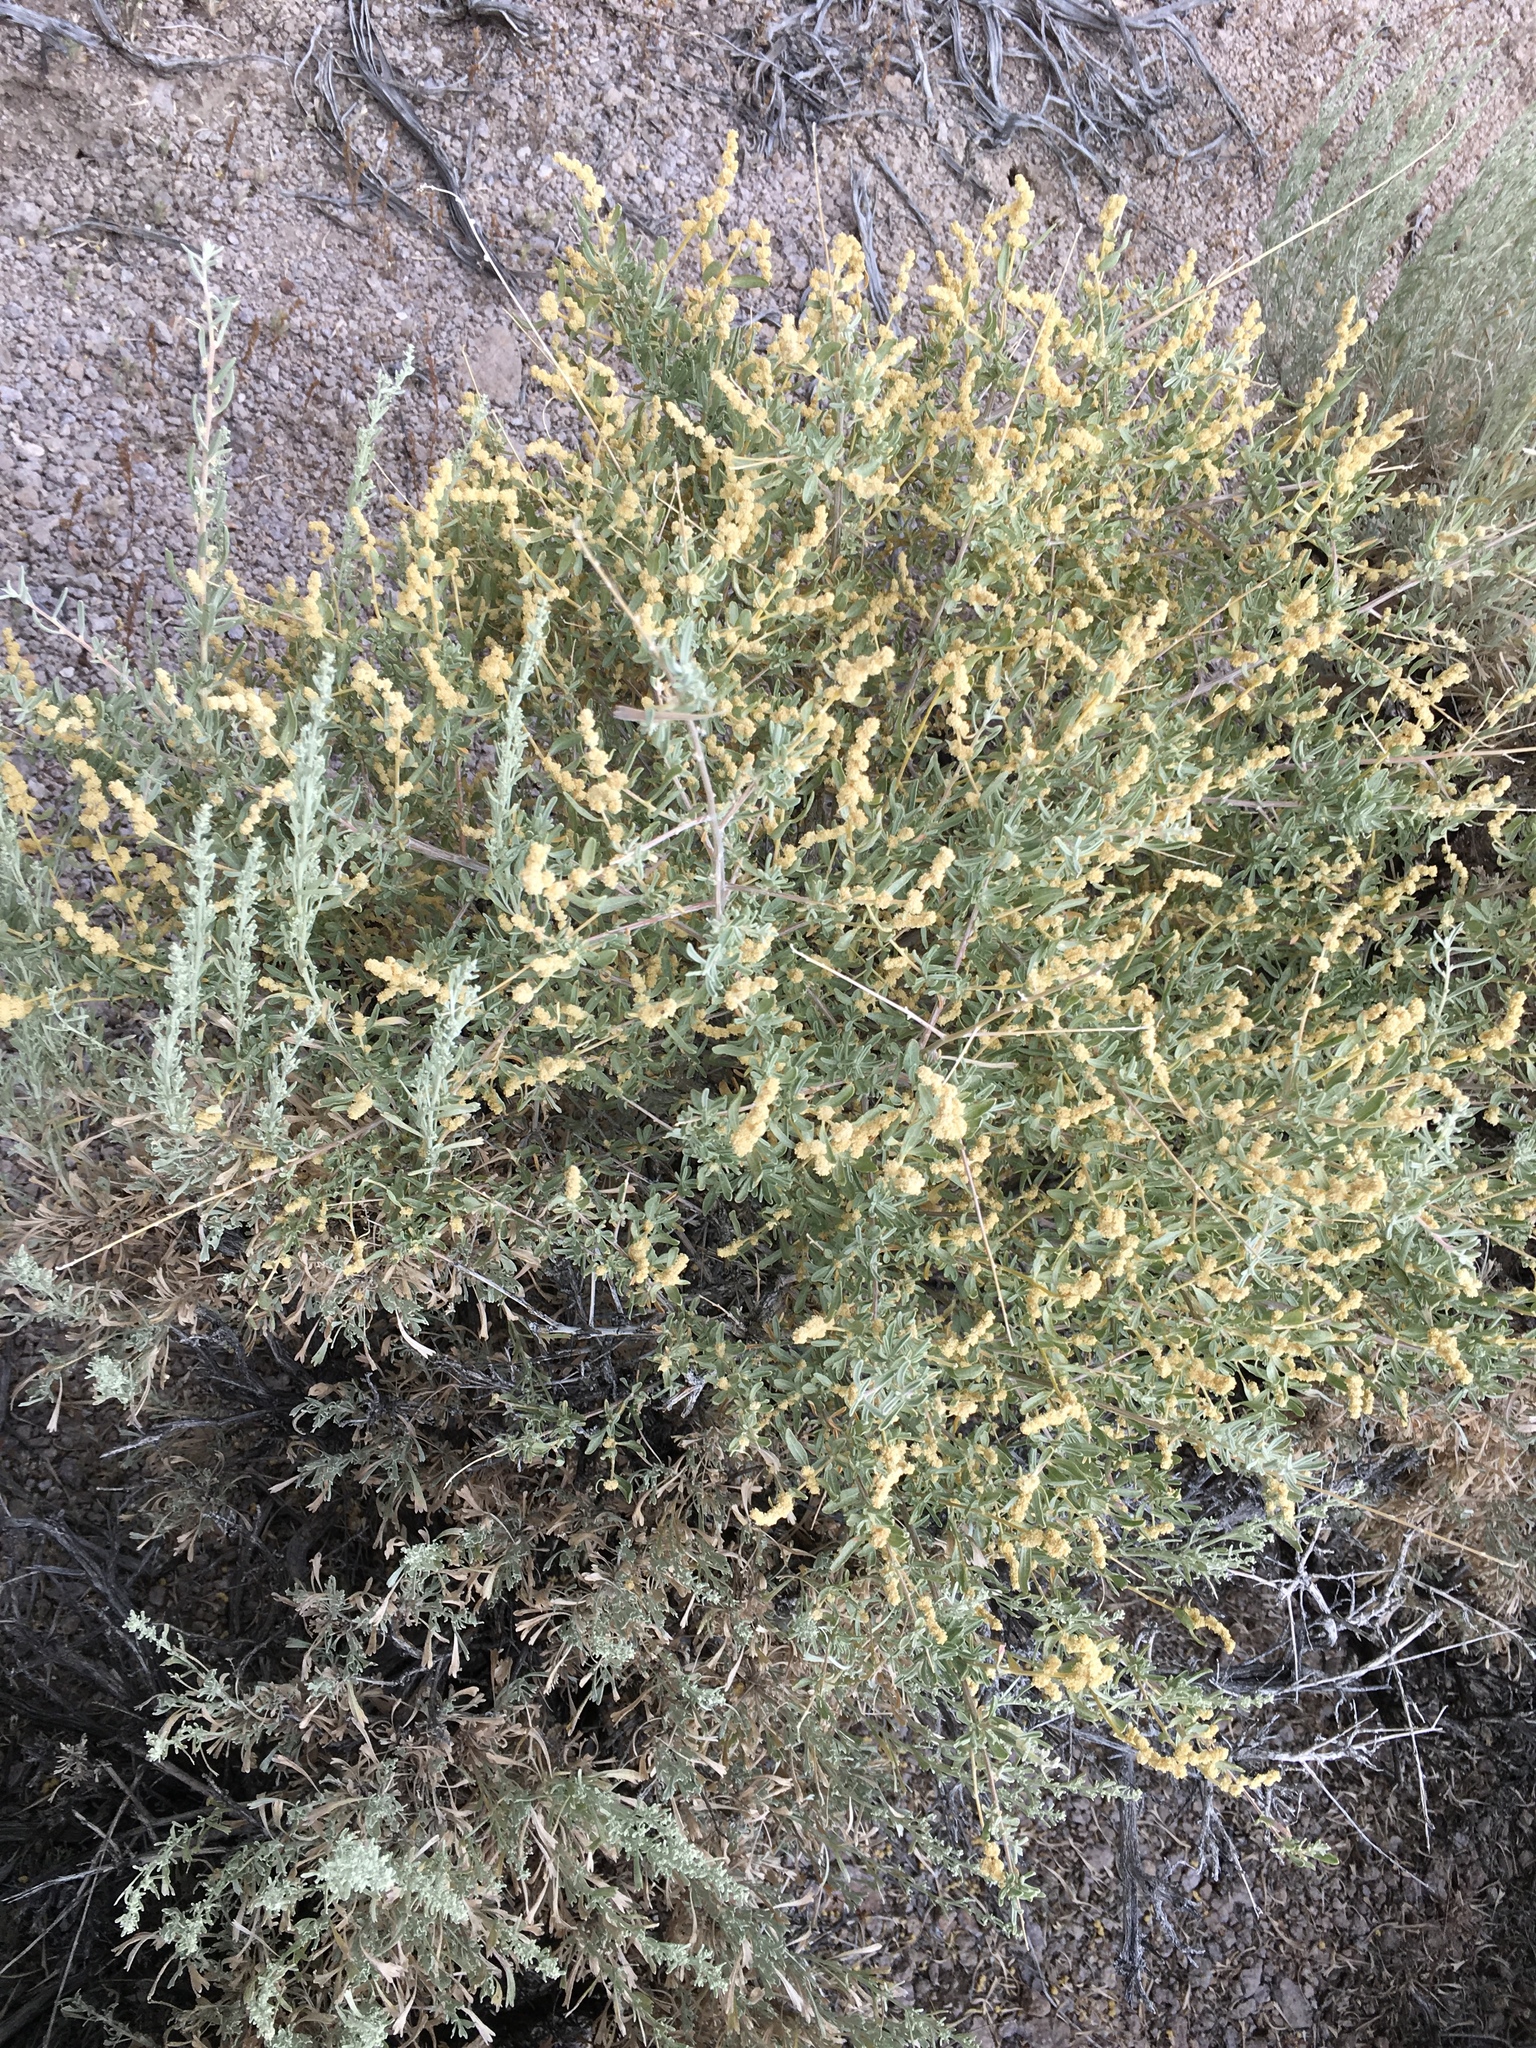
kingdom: Plantae
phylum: Tracheophyta
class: Magnoliopsida
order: Caryophyllales
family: Amaranthaceae
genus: Atriplex
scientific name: Atriplex canescens
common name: Four-wing saltbush
